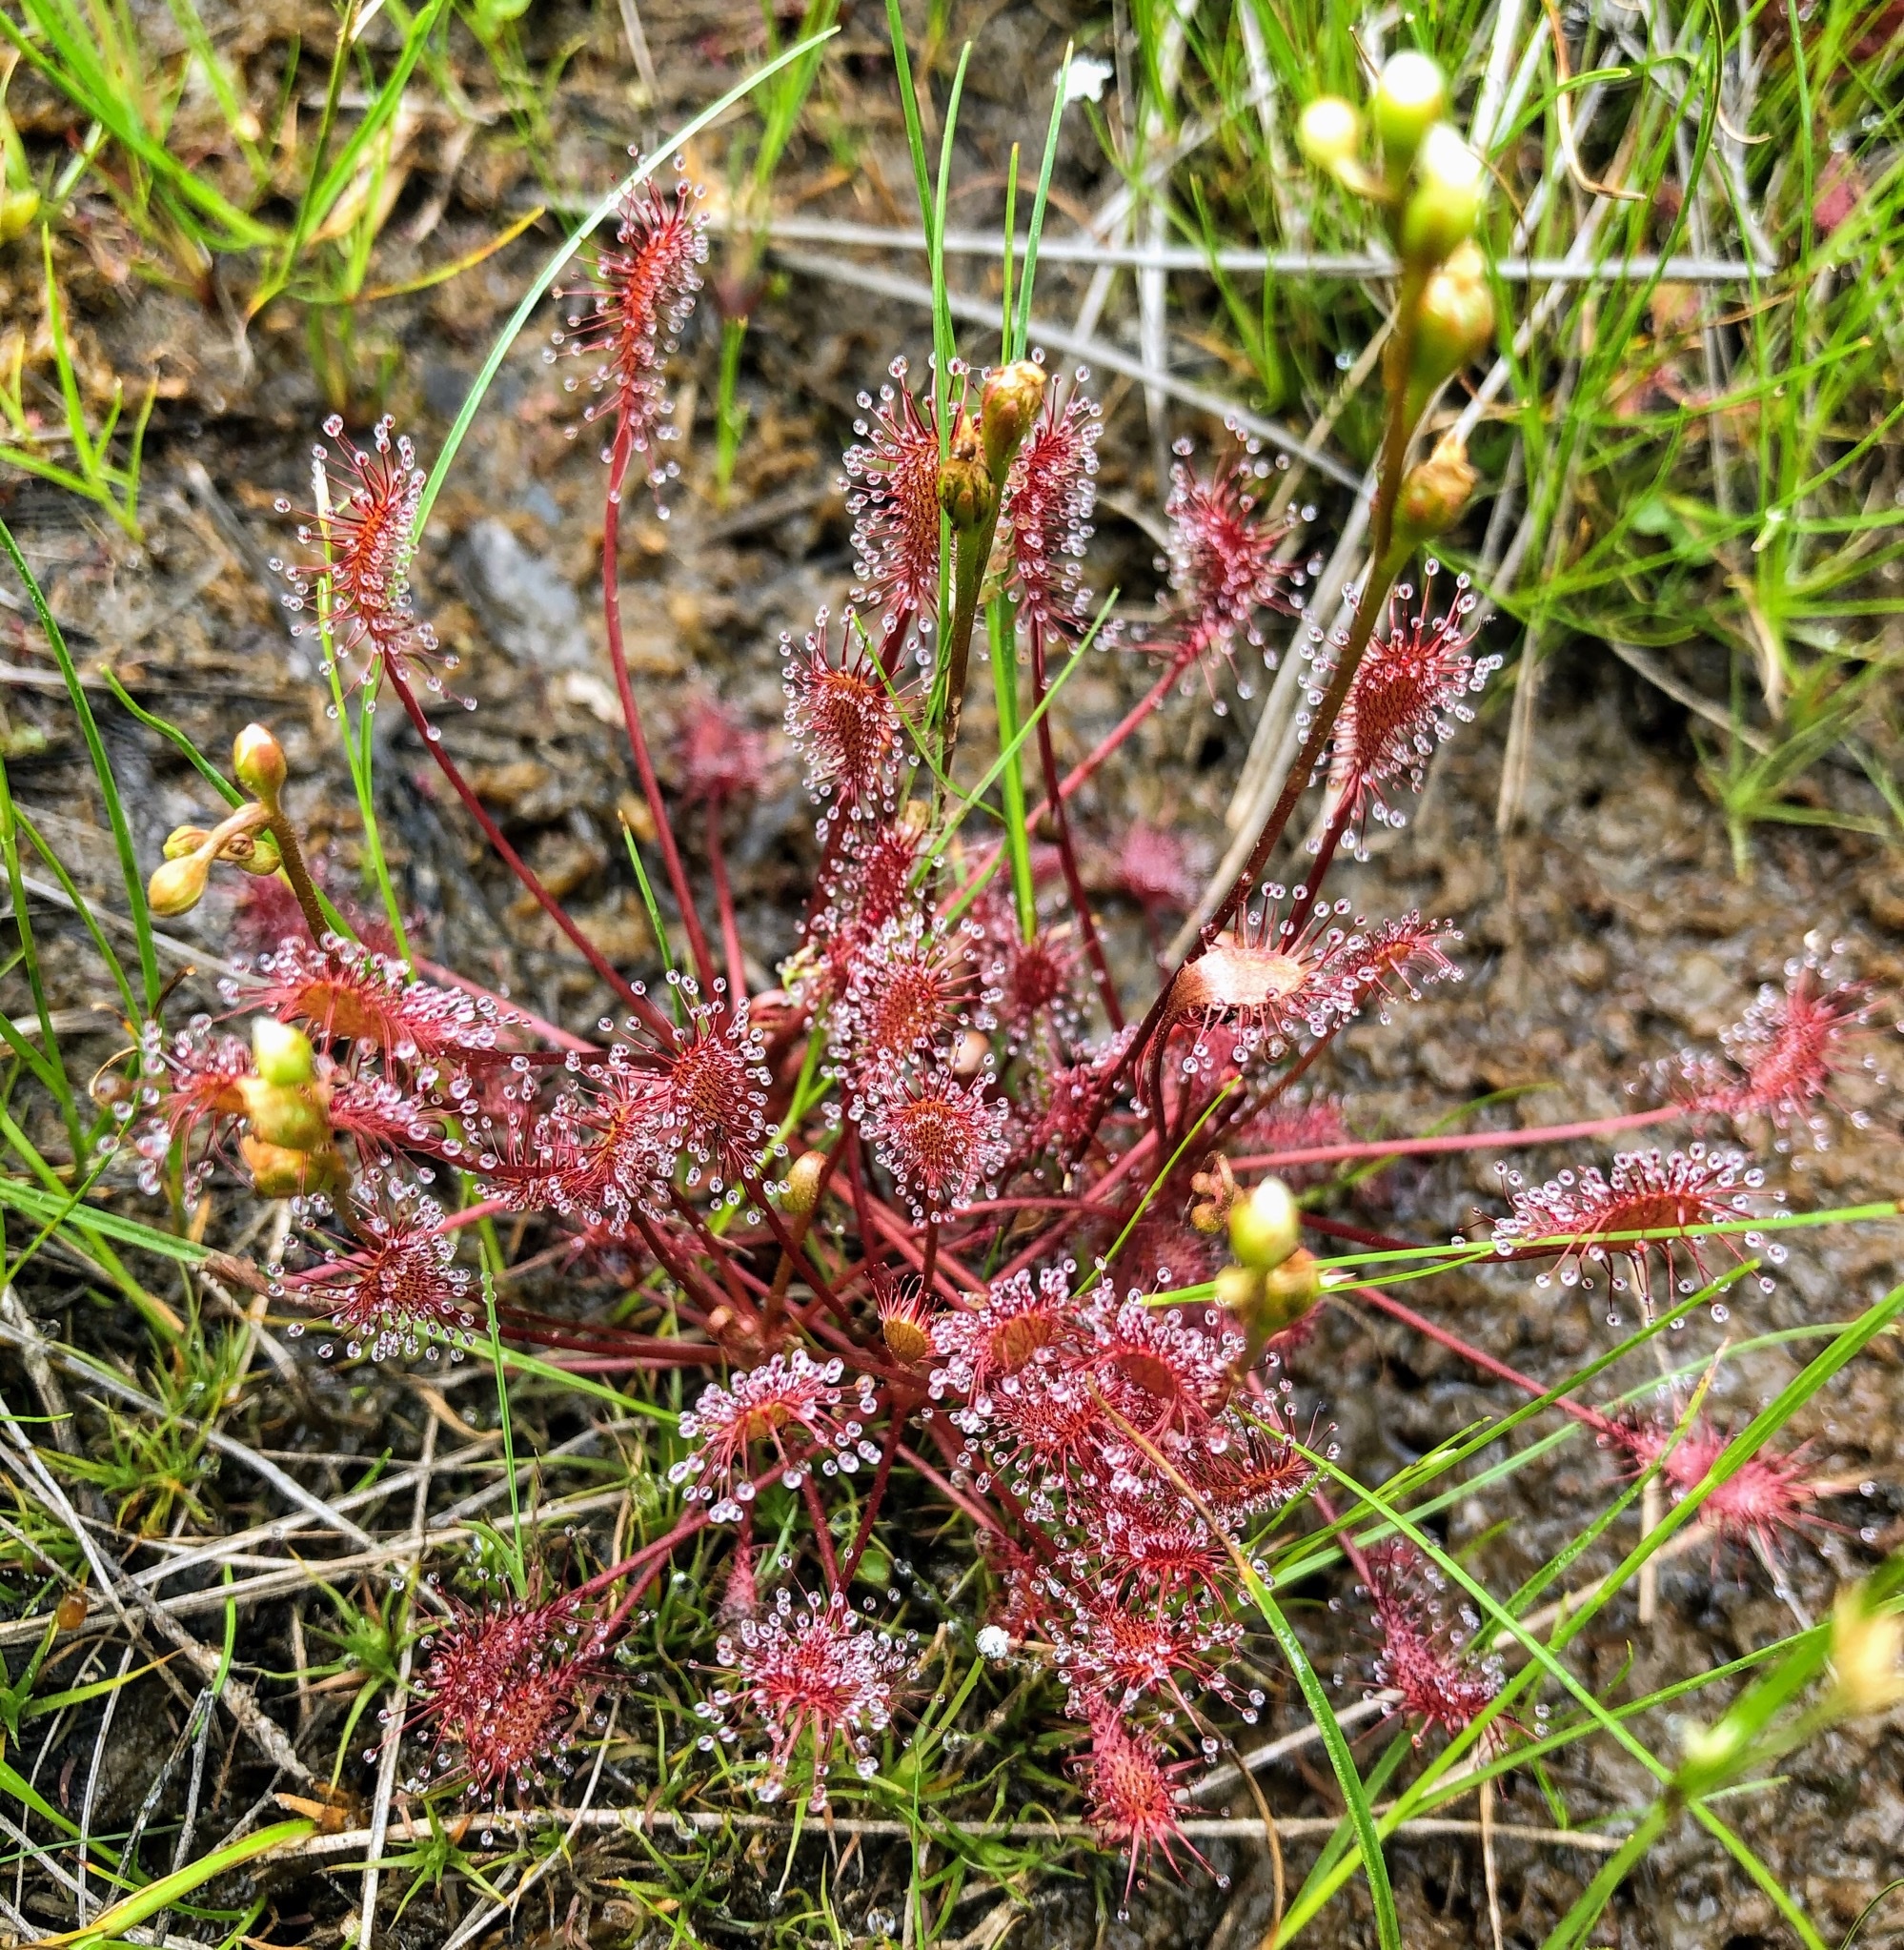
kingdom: Plantae
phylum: Tracheophyta
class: Magnoliopsida
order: Caryophyllales
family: Droseraceae
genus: Drosera
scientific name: Drosera intermedia
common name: Oblong-leaved sundew
